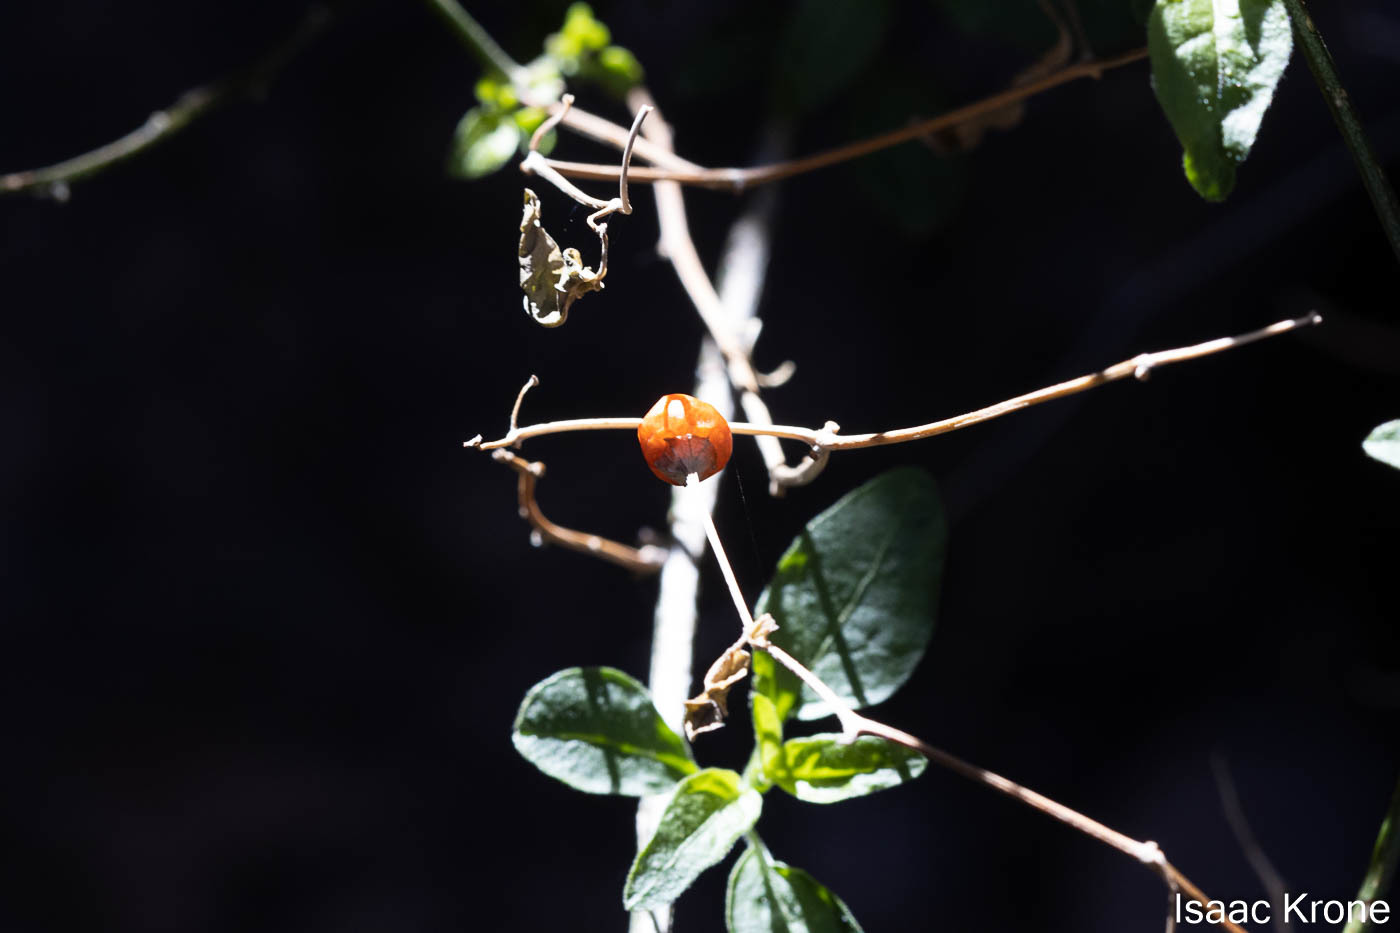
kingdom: Plantae
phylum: Tracheophyta
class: Magnoliopsida
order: Rosales
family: Cannabaceae
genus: Celtis
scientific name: Celtis pallida
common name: Desert hackberry
